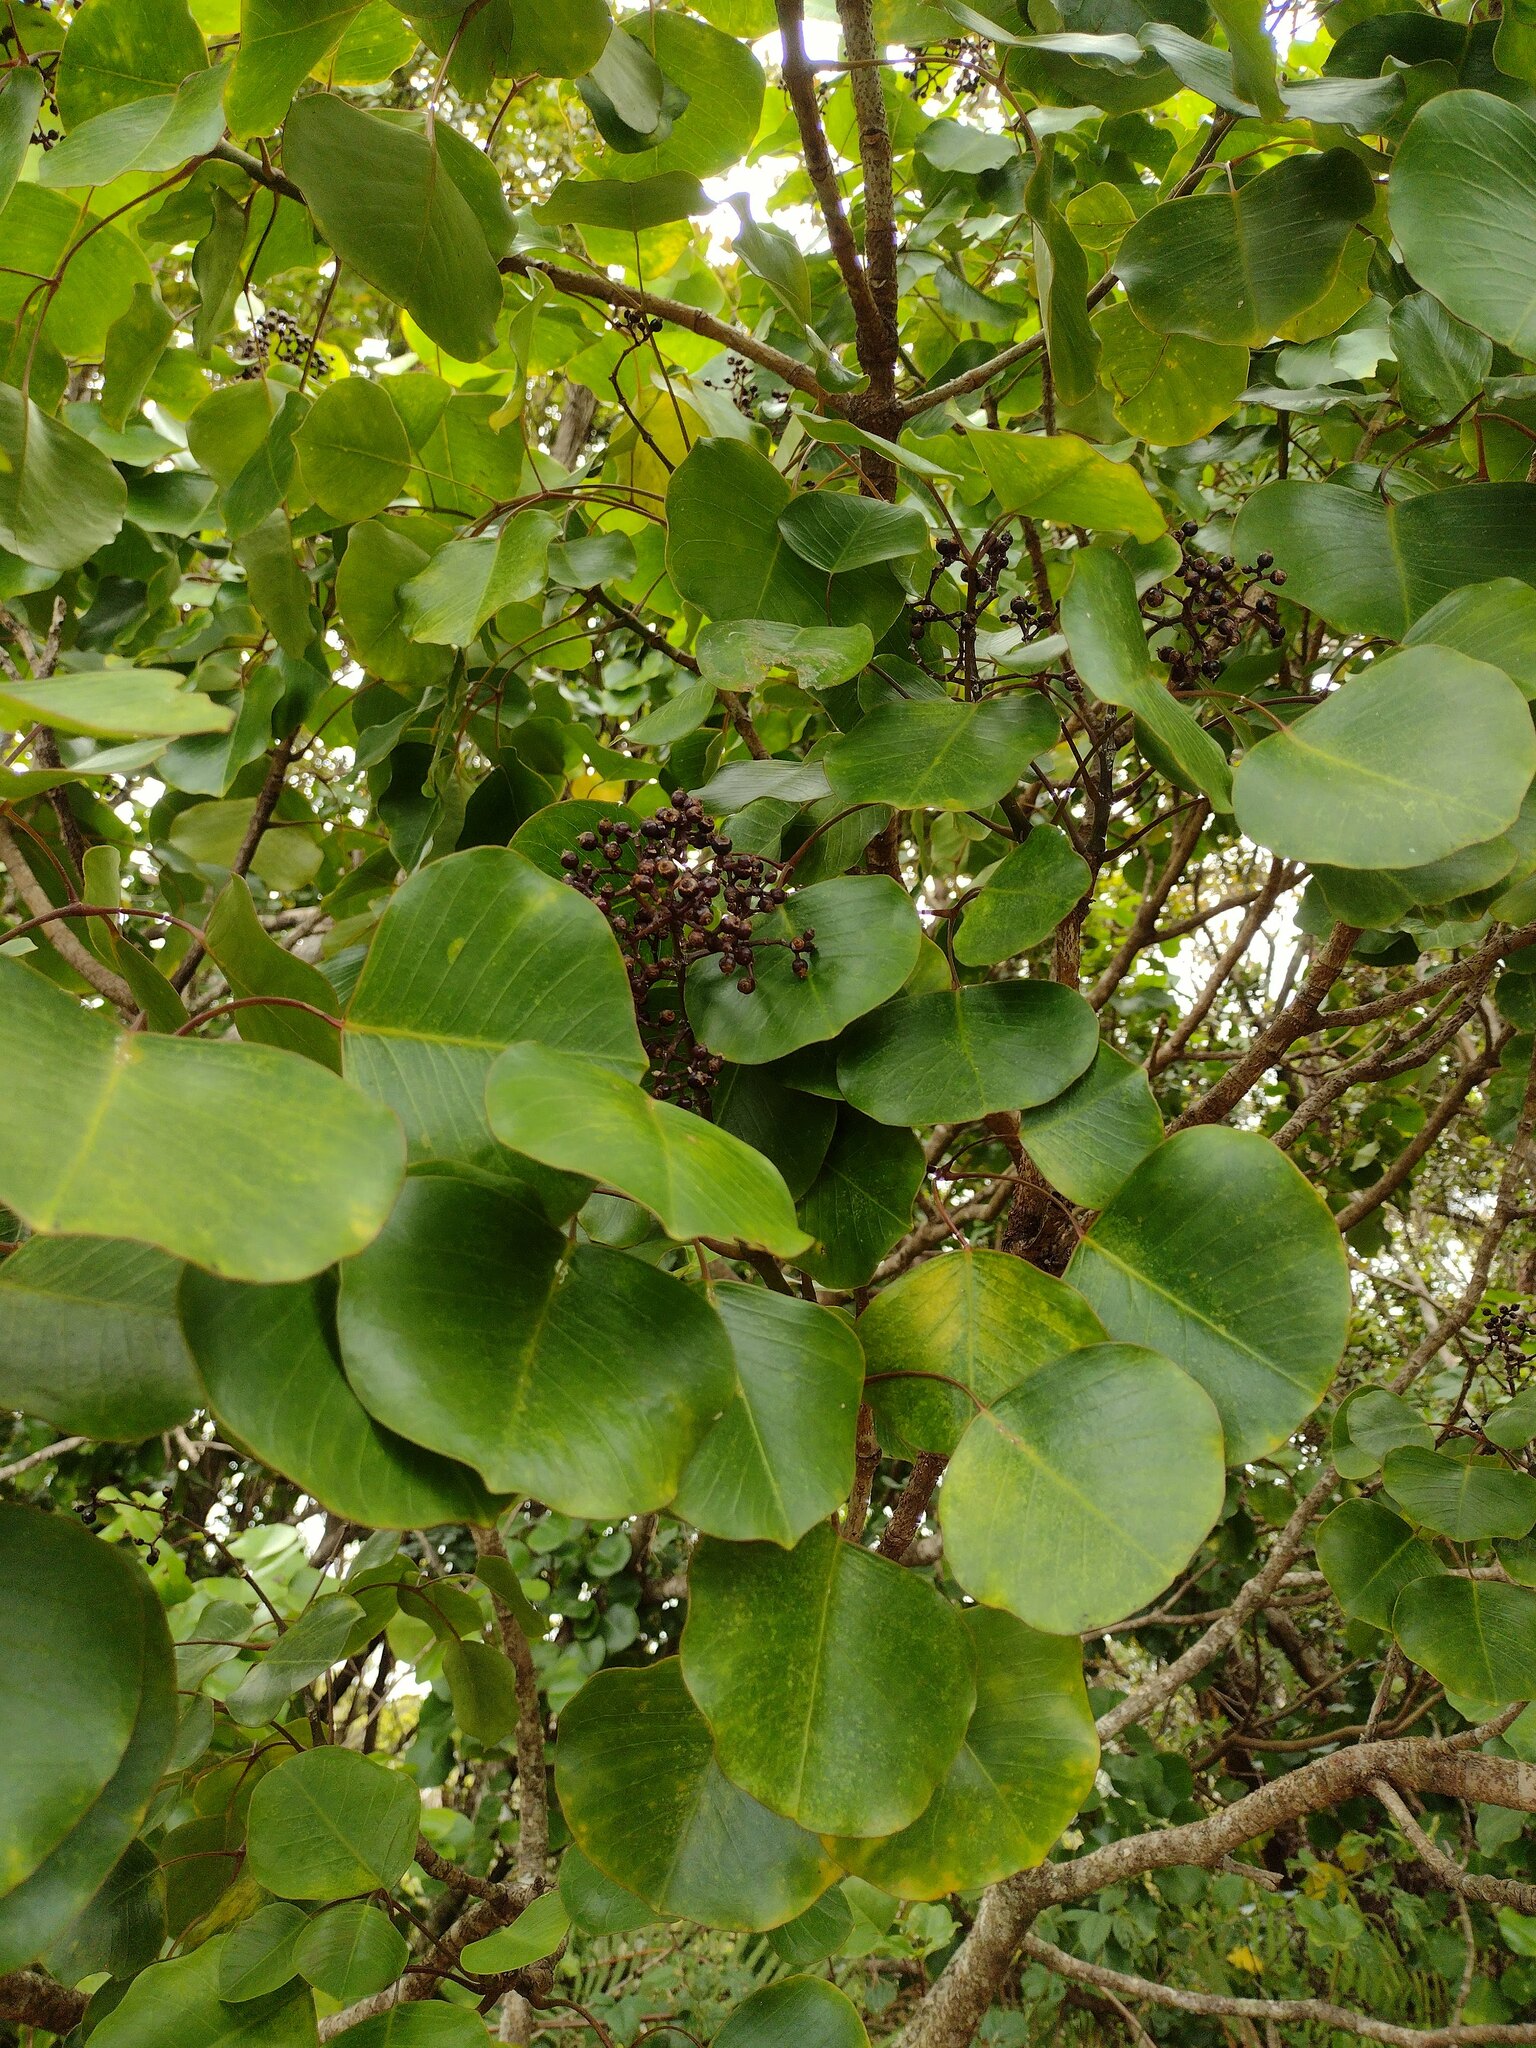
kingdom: Plantae
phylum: Tracheophyta
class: Magnoliopsida
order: Apiales
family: Araliaceae
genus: Cheirodendron
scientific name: Cheirodendron platyphyllum
